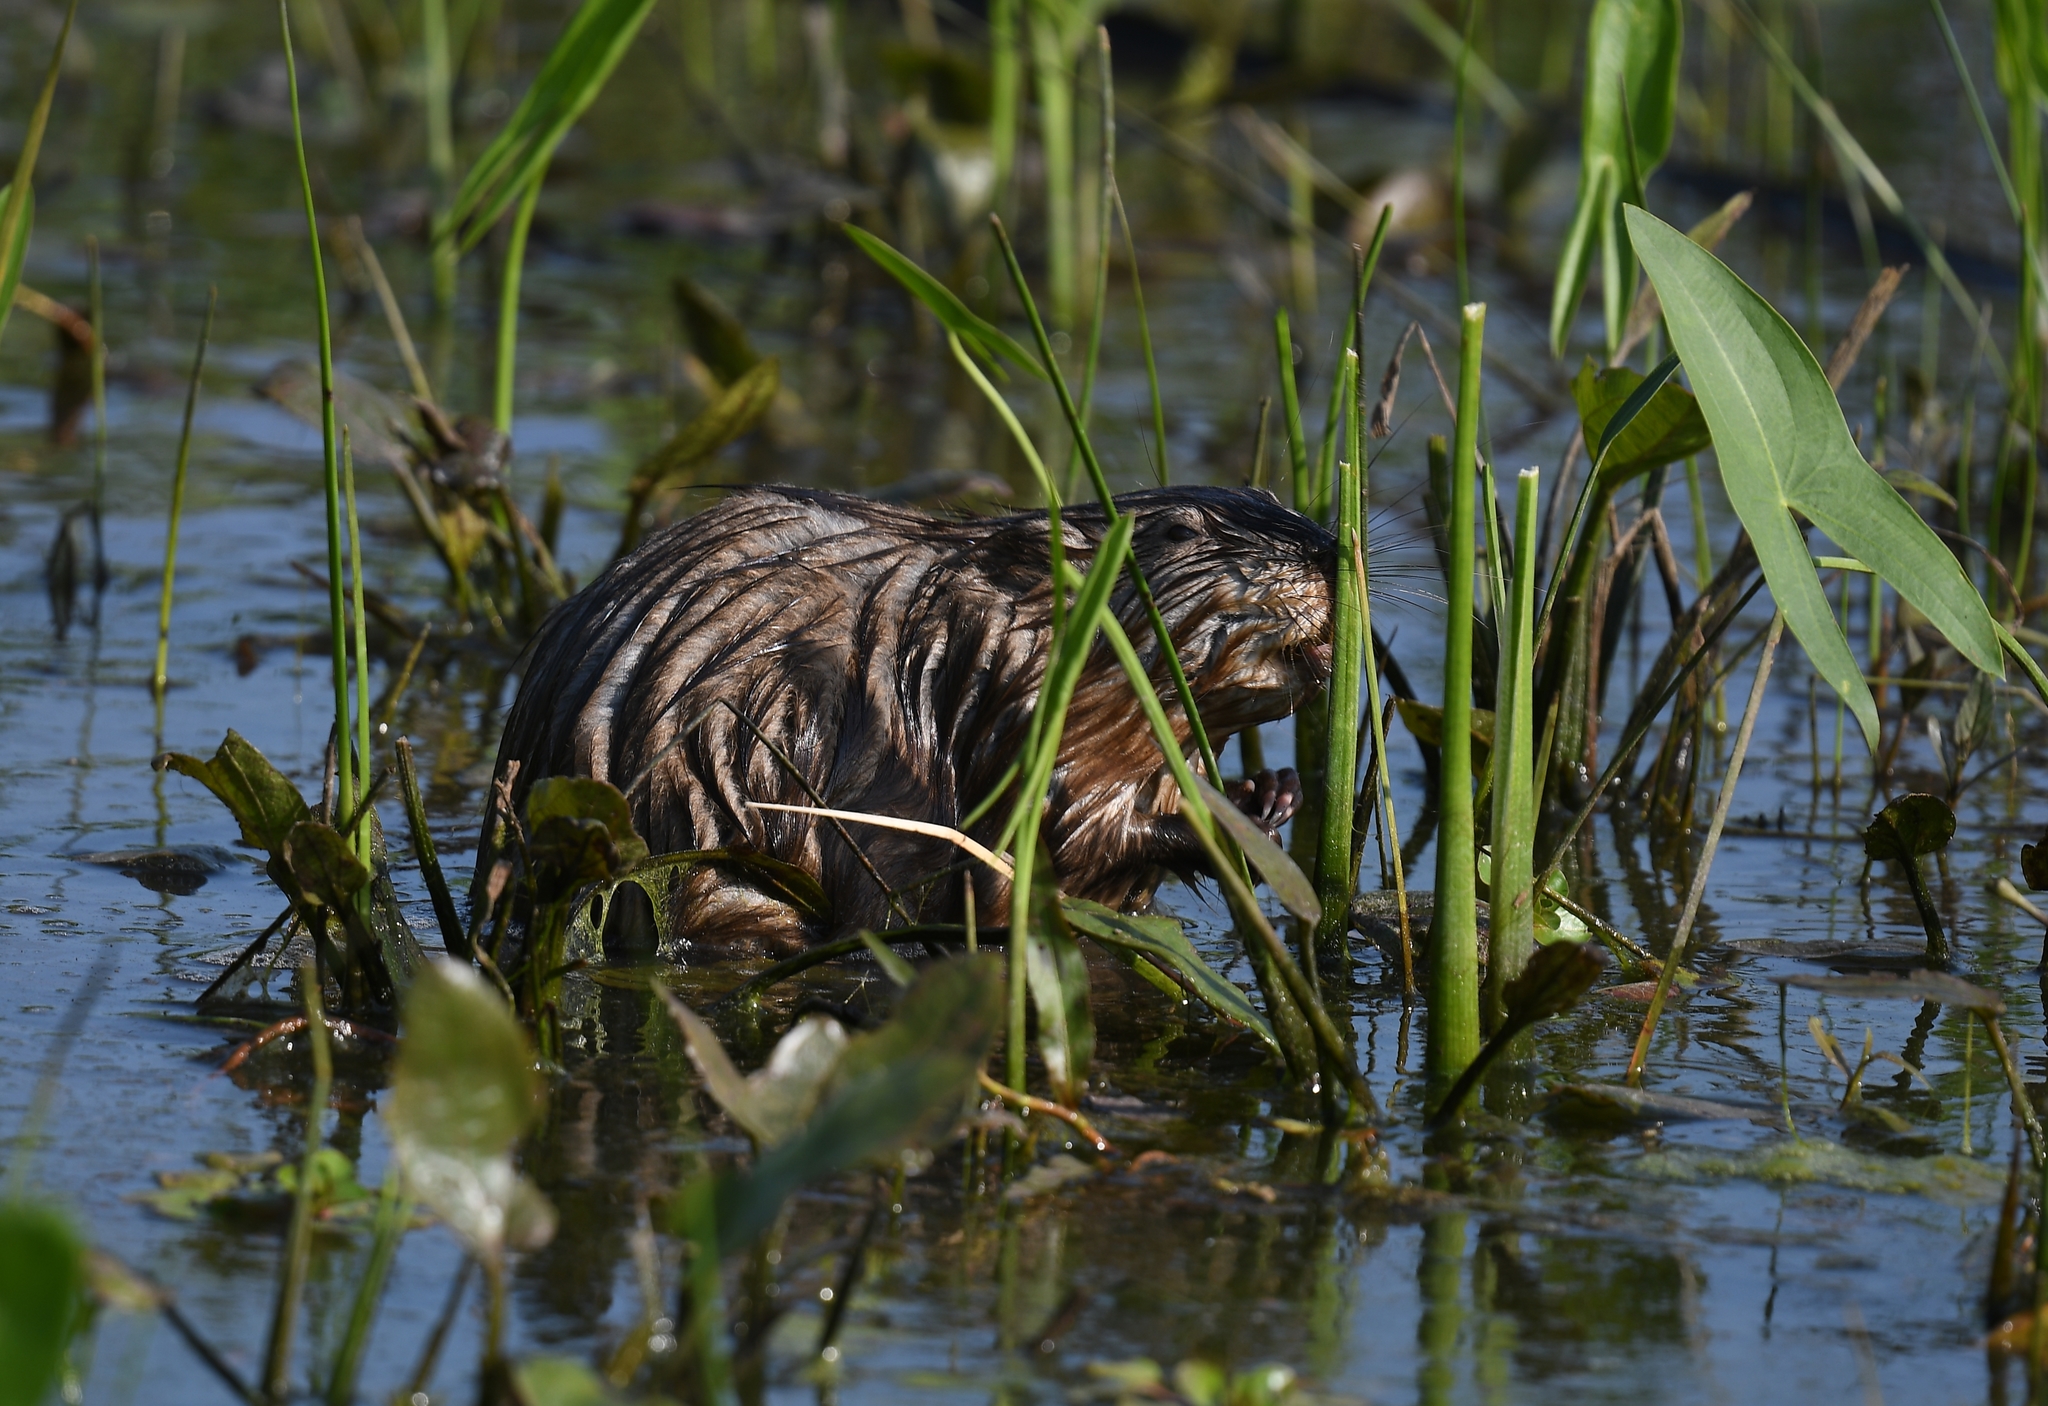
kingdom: Animalia
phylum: Chordata
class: Mammalia
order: Rodentia
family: Cricetidae
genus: Ondatra
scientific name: Ondatra zibethicus
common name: Muskrat
